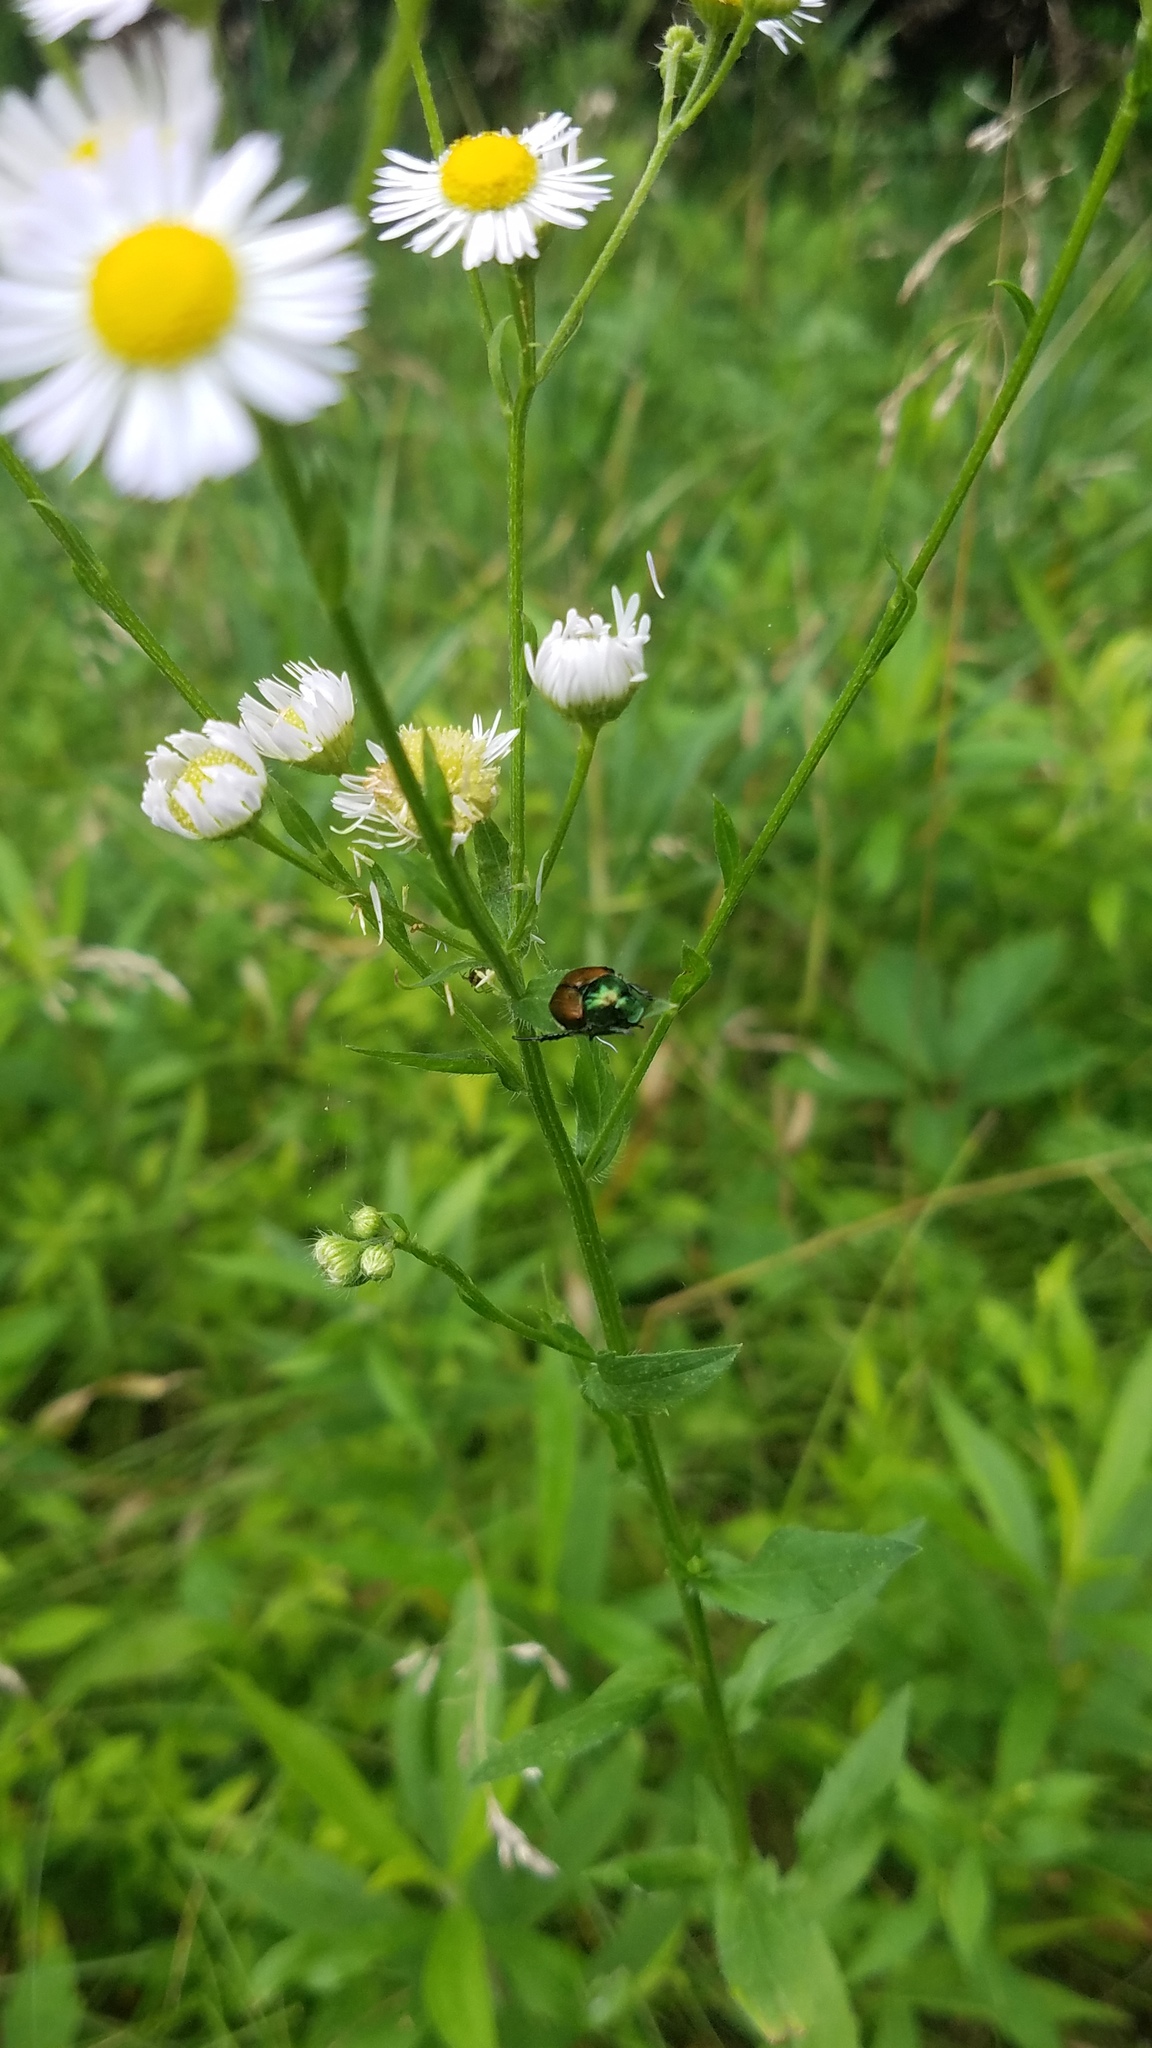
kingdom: Animalia
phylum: Arthropoda
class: Insecta
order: Coleoptera
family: Scarabaeidae
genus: Popillia
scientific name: Popillia japonica
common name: Japanese beetle
